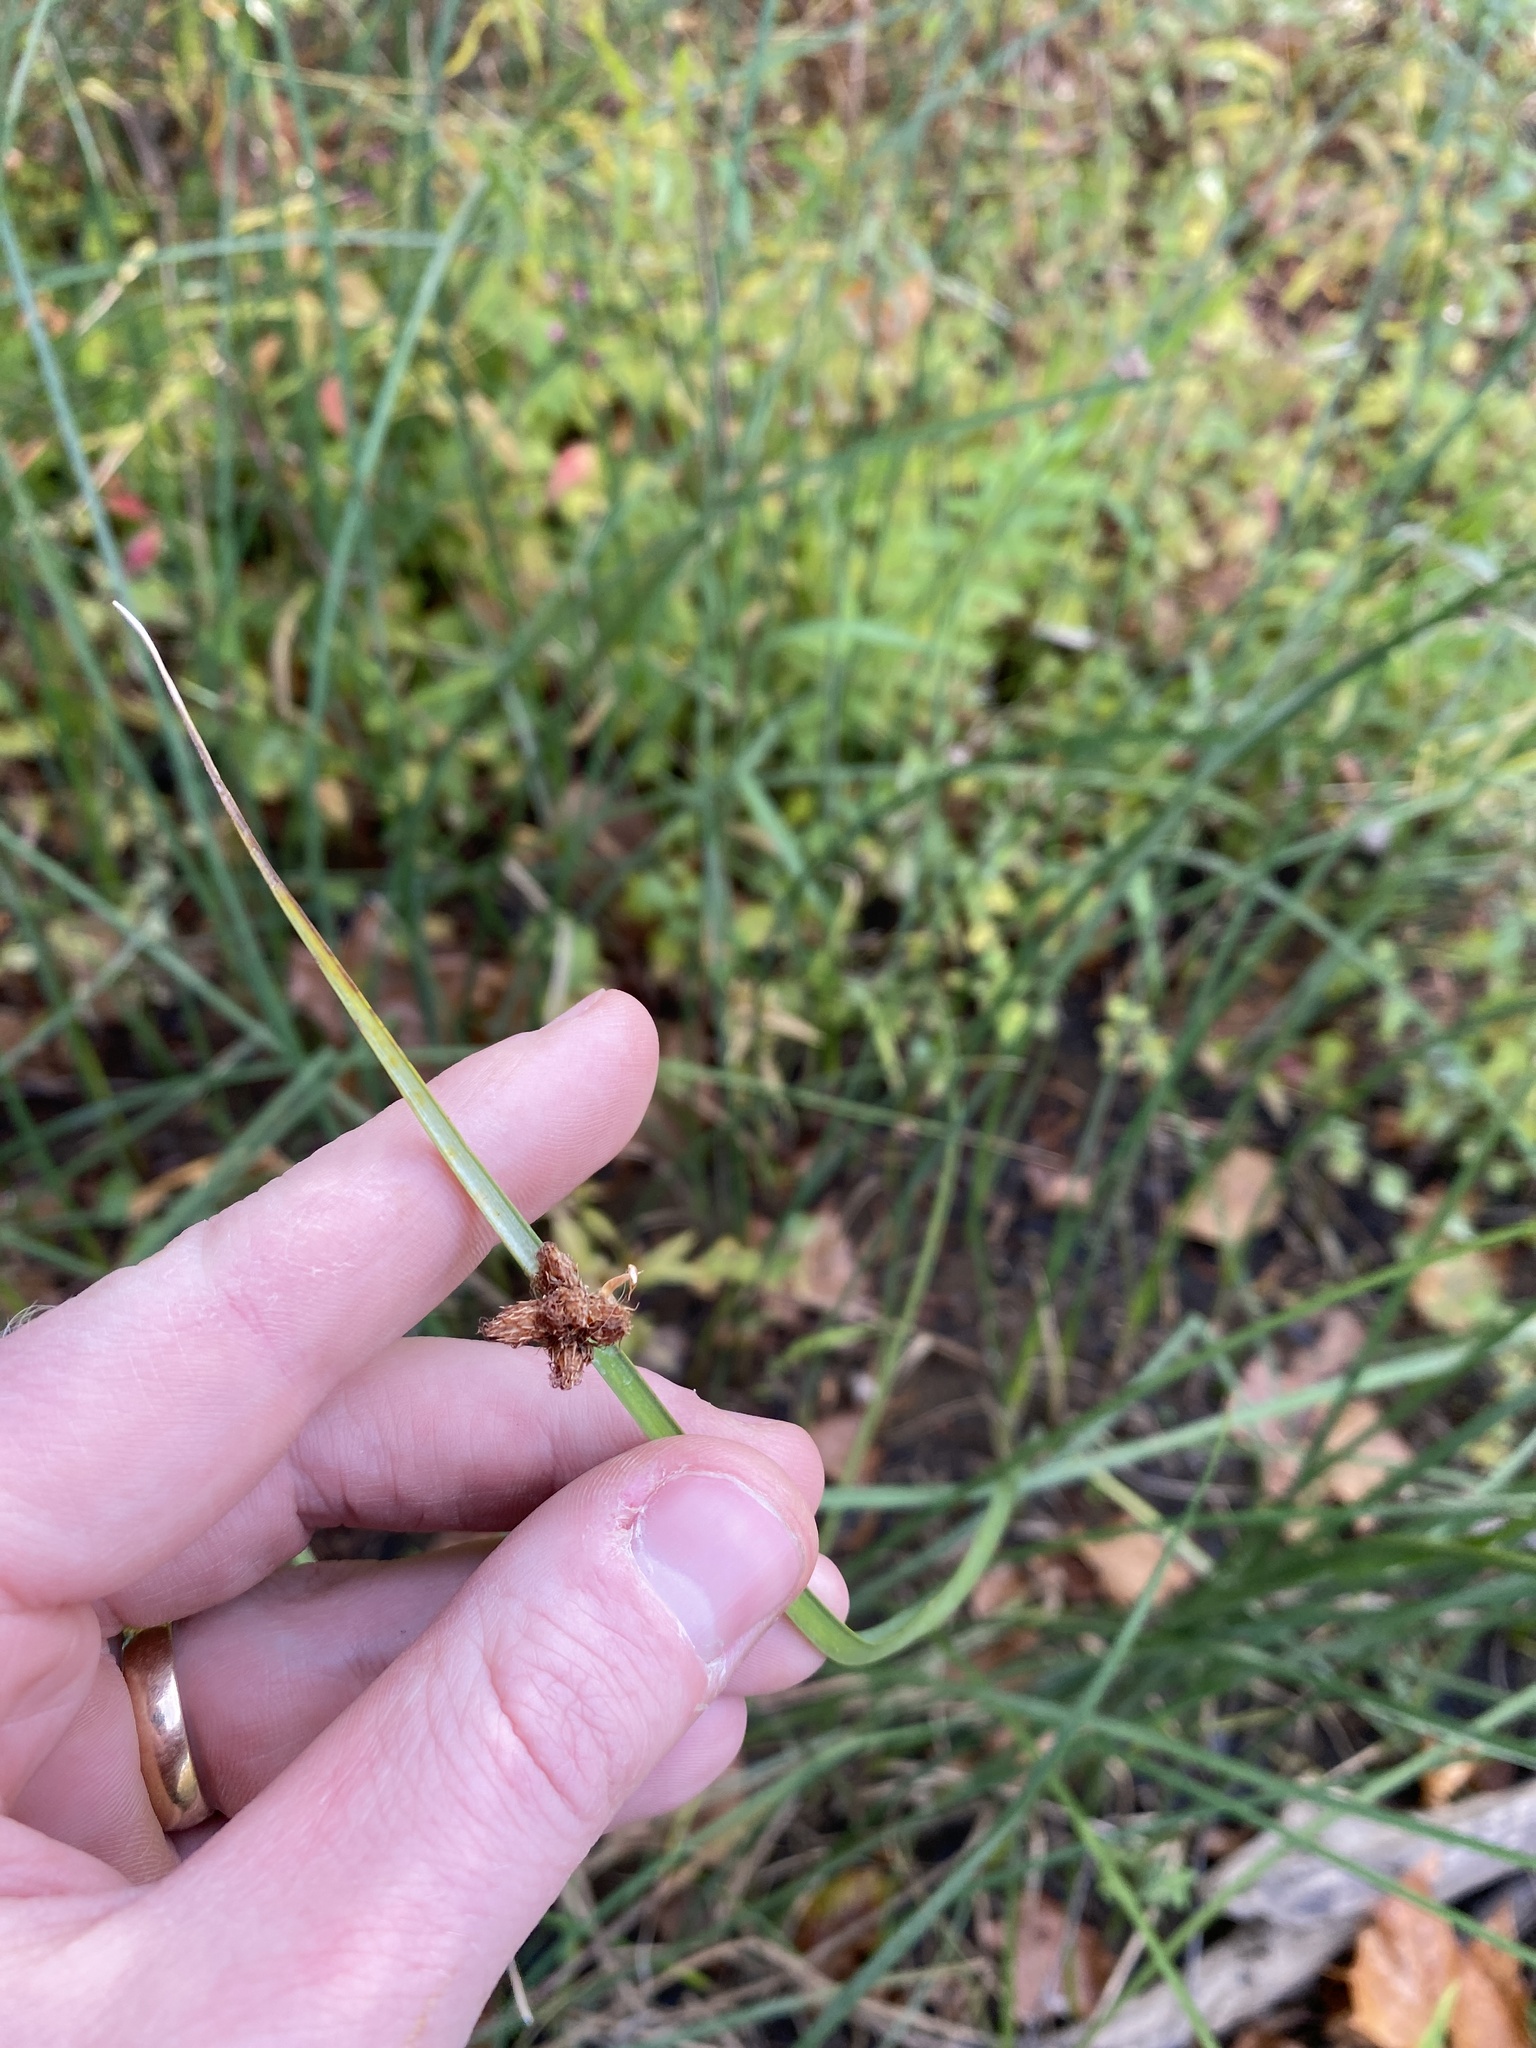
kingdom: Plantae
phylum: Tracheophyta
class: Liliopsida
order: Poales
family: Cyperaceae
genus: Schoenoplectus
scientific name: Schoenoplectus pungens
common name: Sharp club-rush
